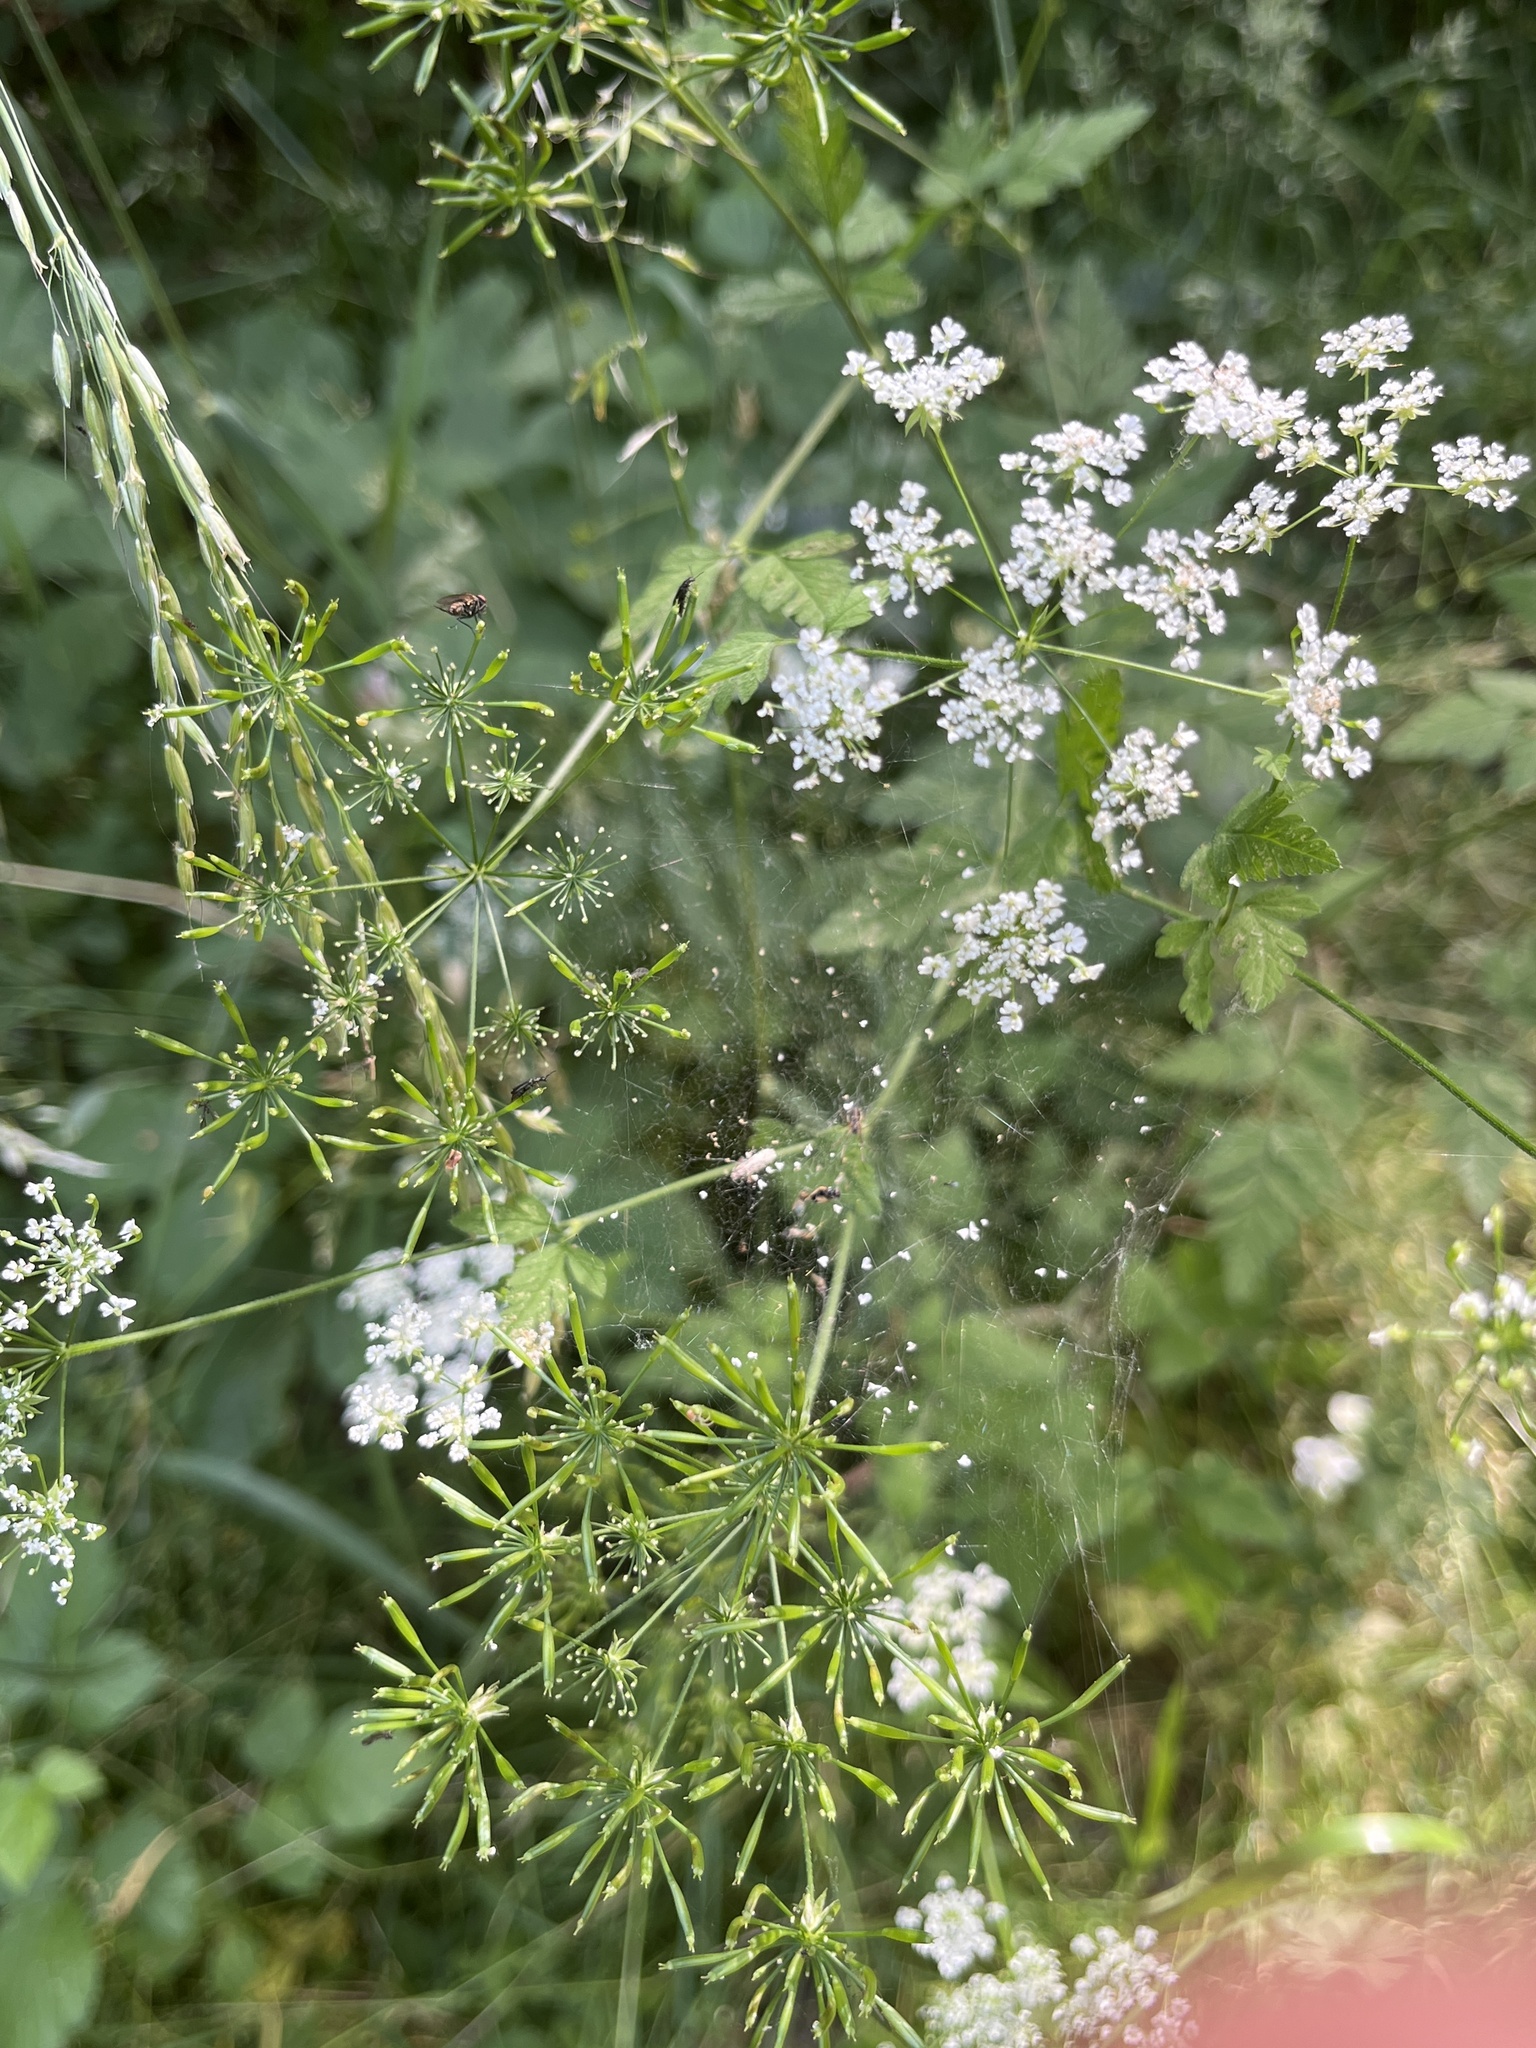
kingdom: Plantae
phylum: Tracheophyta
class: Magnoliopsida
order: Apiales
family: Apiaceae
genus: Chaerophyllum
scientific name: Chaerophyllum temulum
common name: Rough chervil
